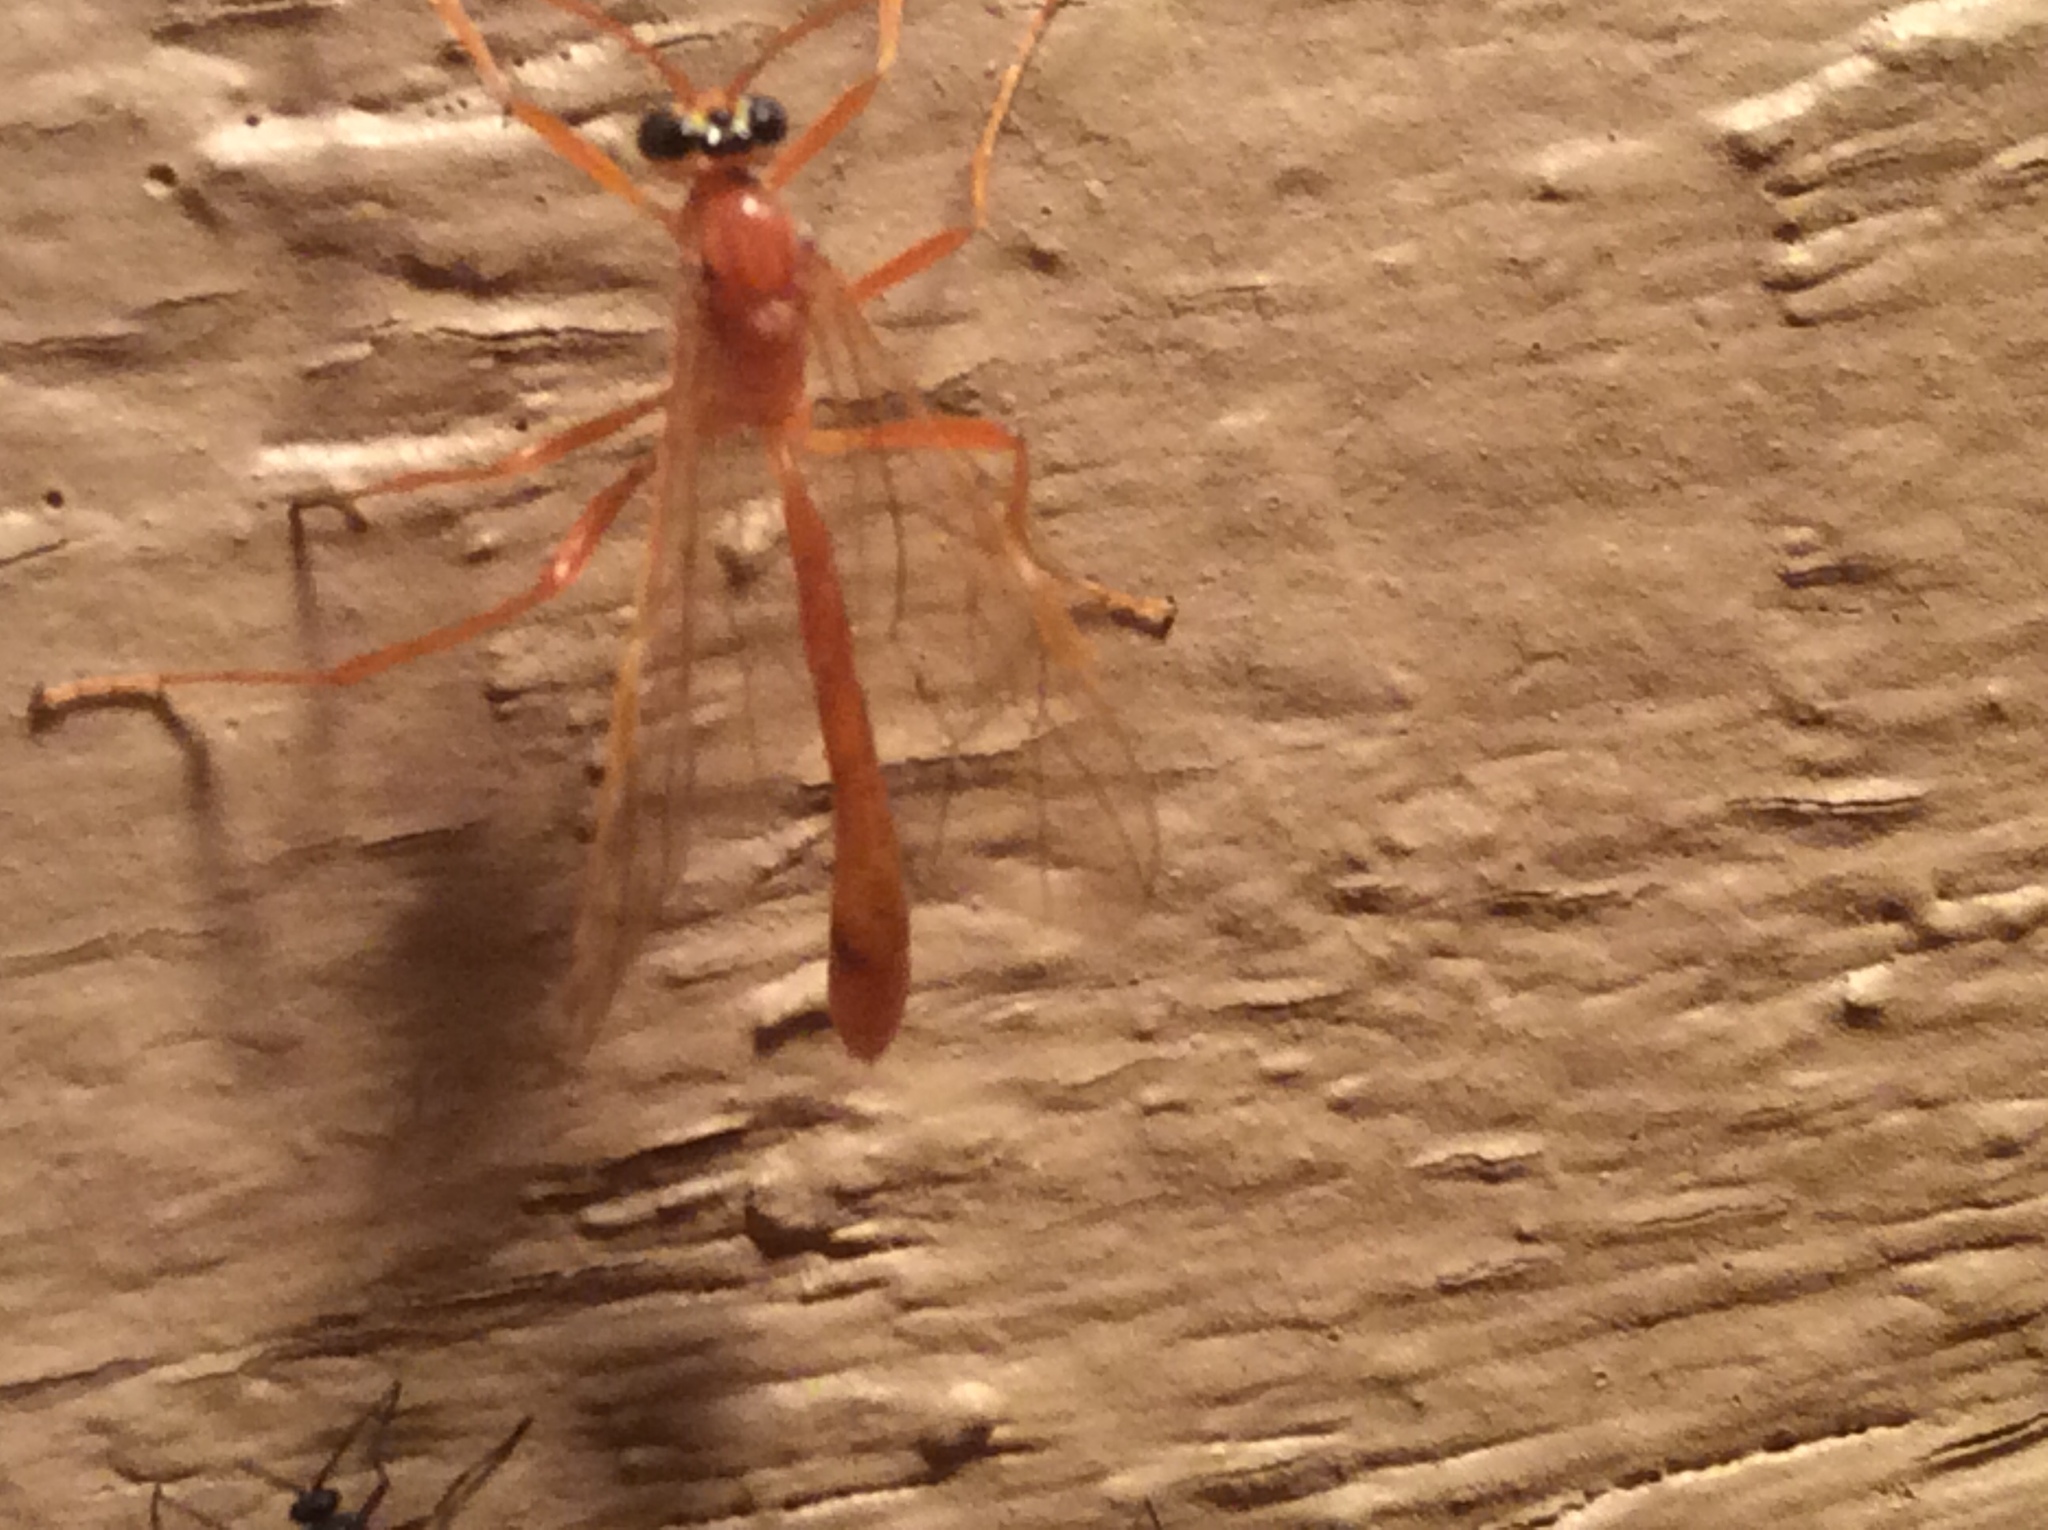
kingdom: Animalia
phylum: Arthropoda
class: Insecta
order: Hymenoptera
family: Ichneumonidae
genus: Ophion
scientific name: Ophion
